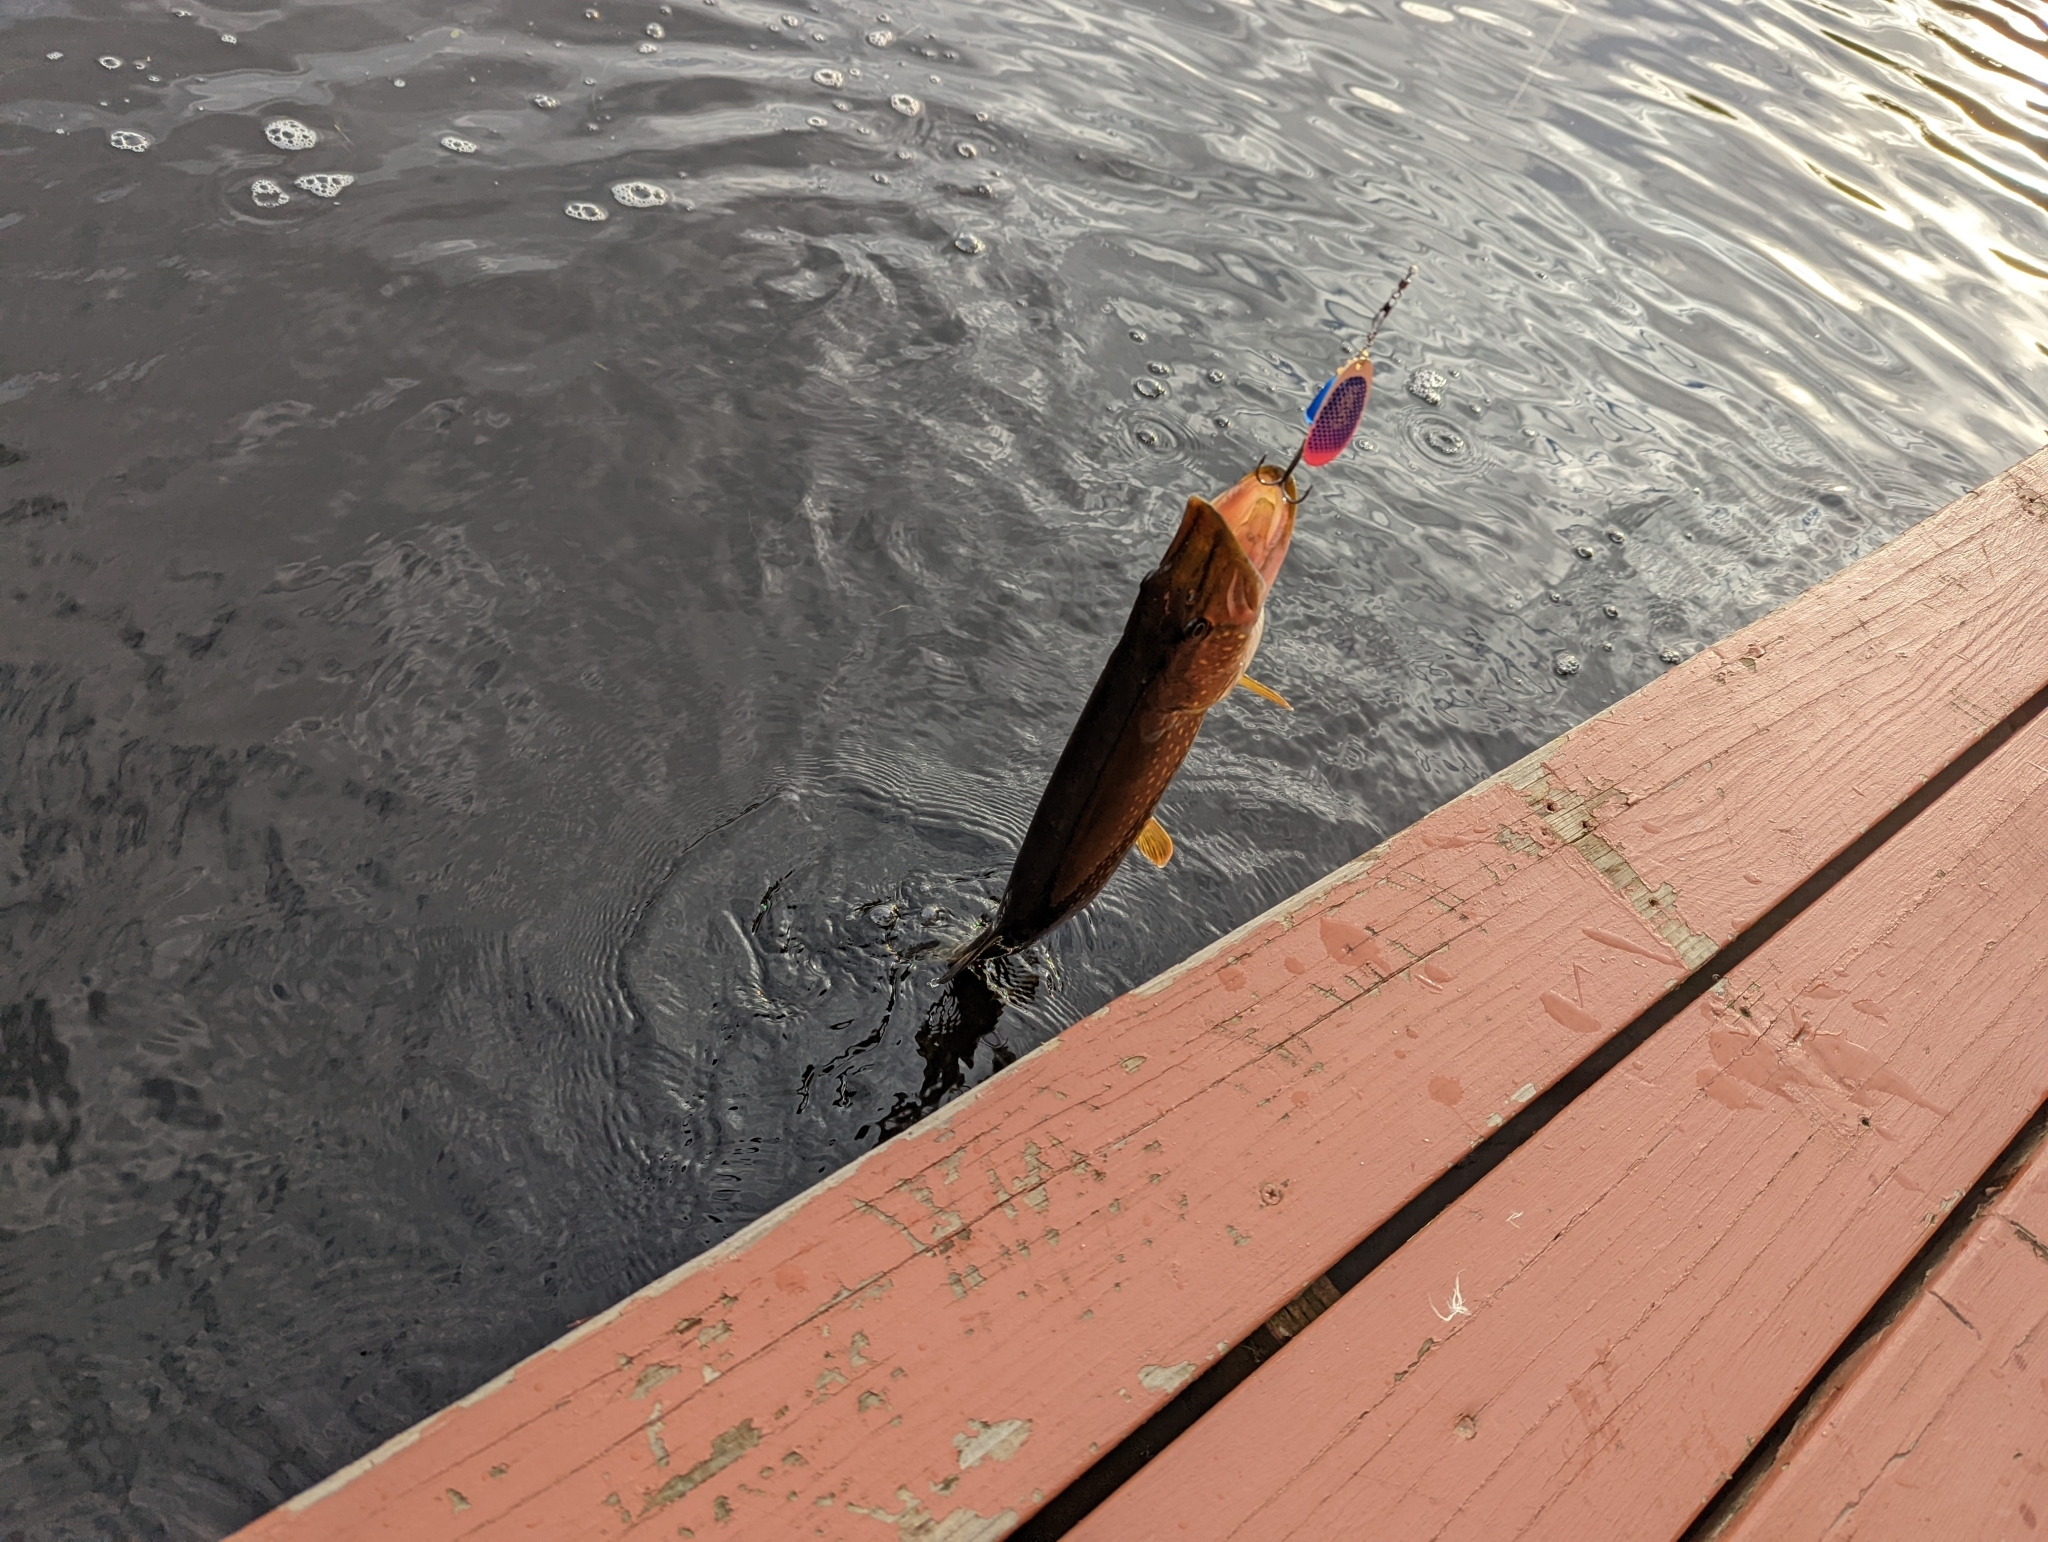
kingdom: Animalia
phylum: Chordata
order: Esociformes
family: Esocidae
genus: Esox
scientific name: Esox lucius
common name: Northern pike
